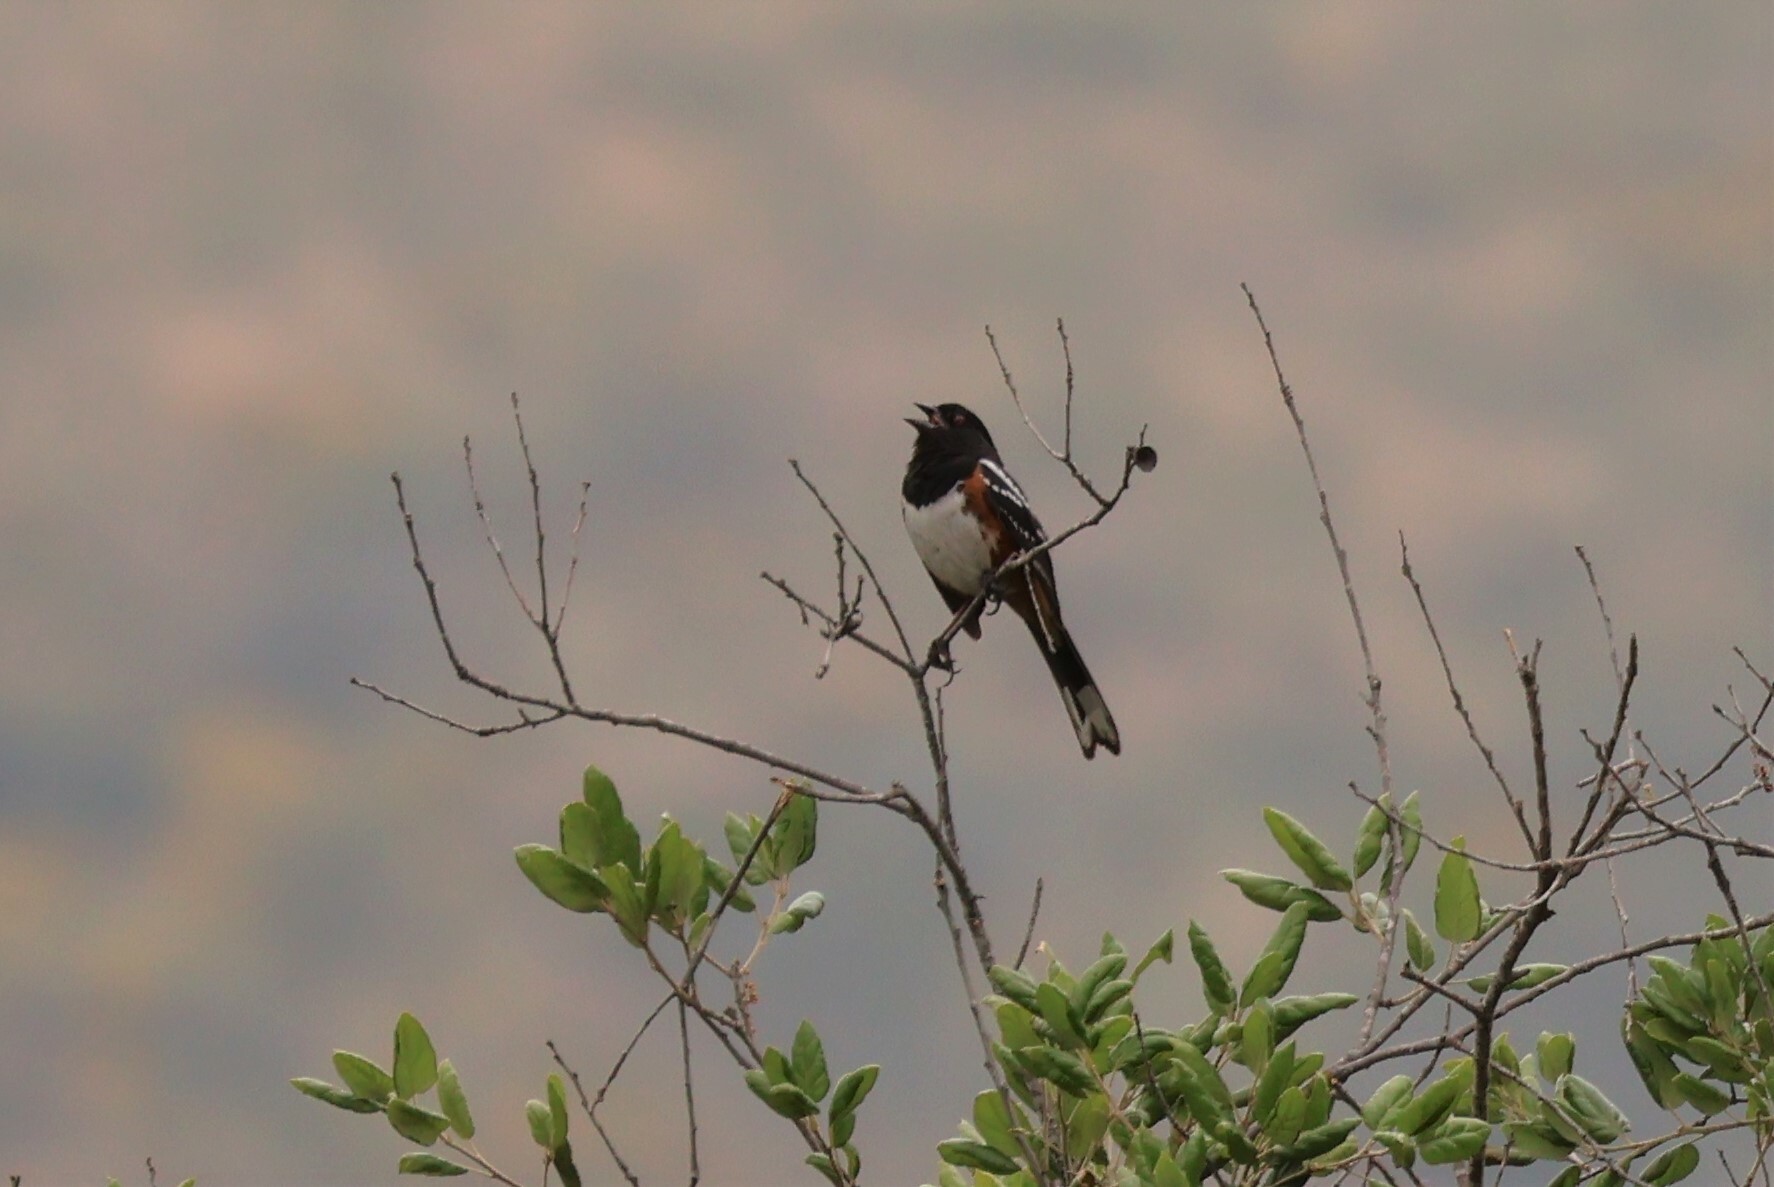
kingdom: Animalia
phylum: Chordata
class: Aves
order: Passeriformes
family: Passerellidae
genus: Pipilo
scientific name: Pipilo maculatus
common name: Spotted towhee
